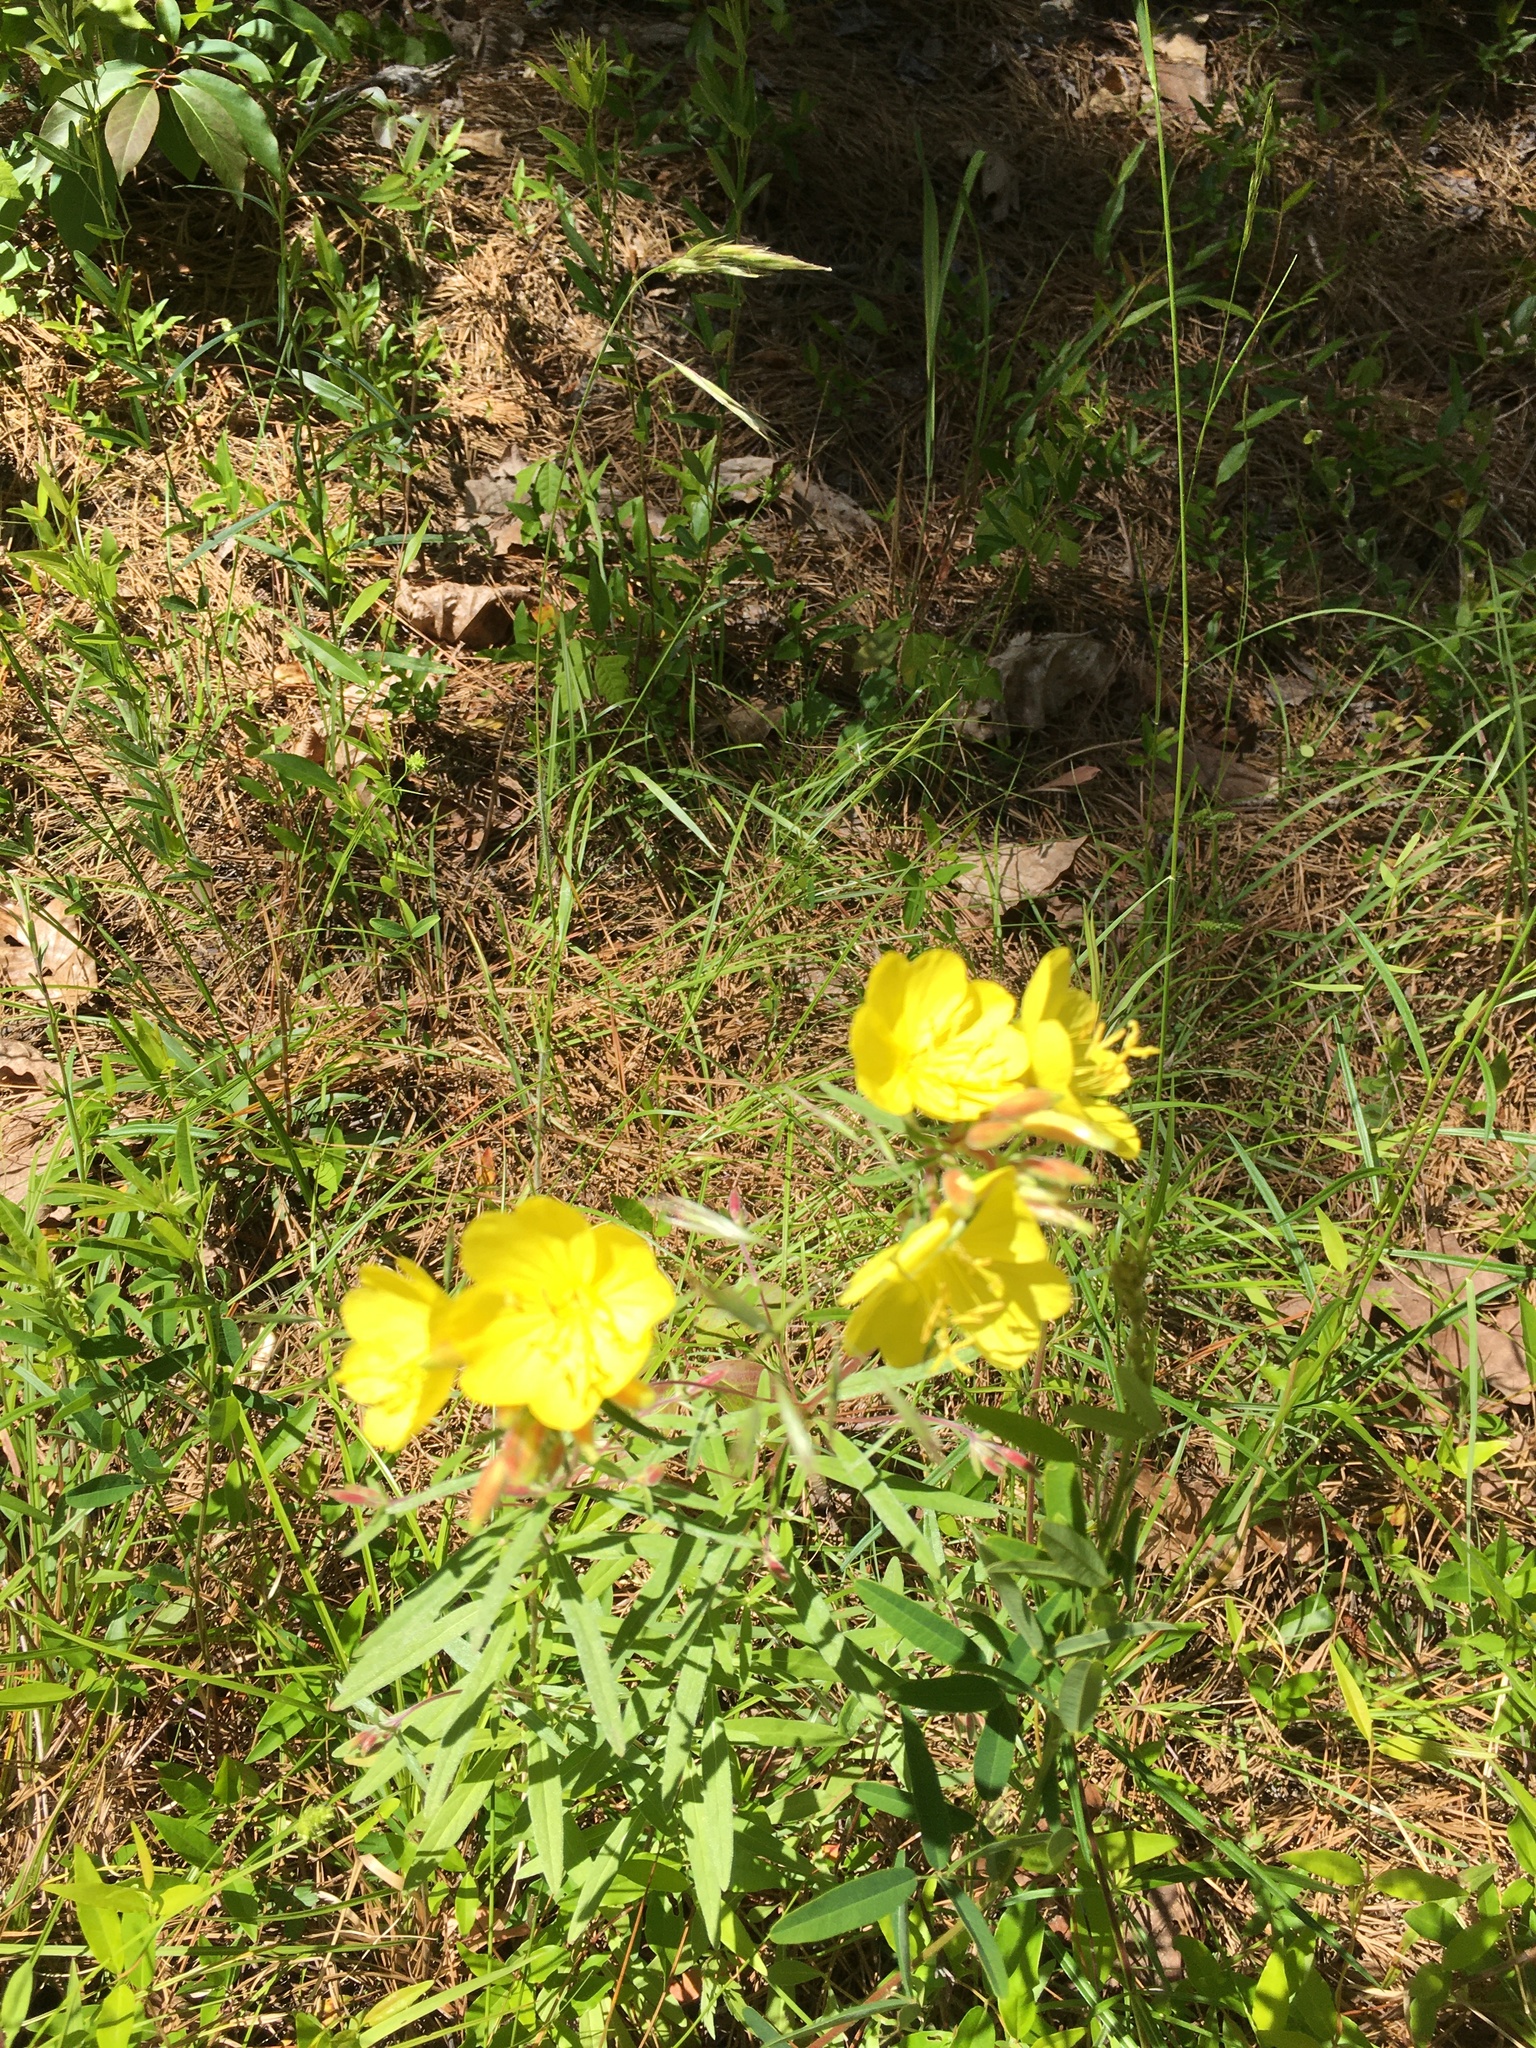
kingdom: Plantae
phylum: Tracheophyta
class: Magnoliopsida
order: Myrtales
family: Onagraceae
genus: Oenothera
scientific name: Oenothera fruticosa
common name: Southern sundrops
